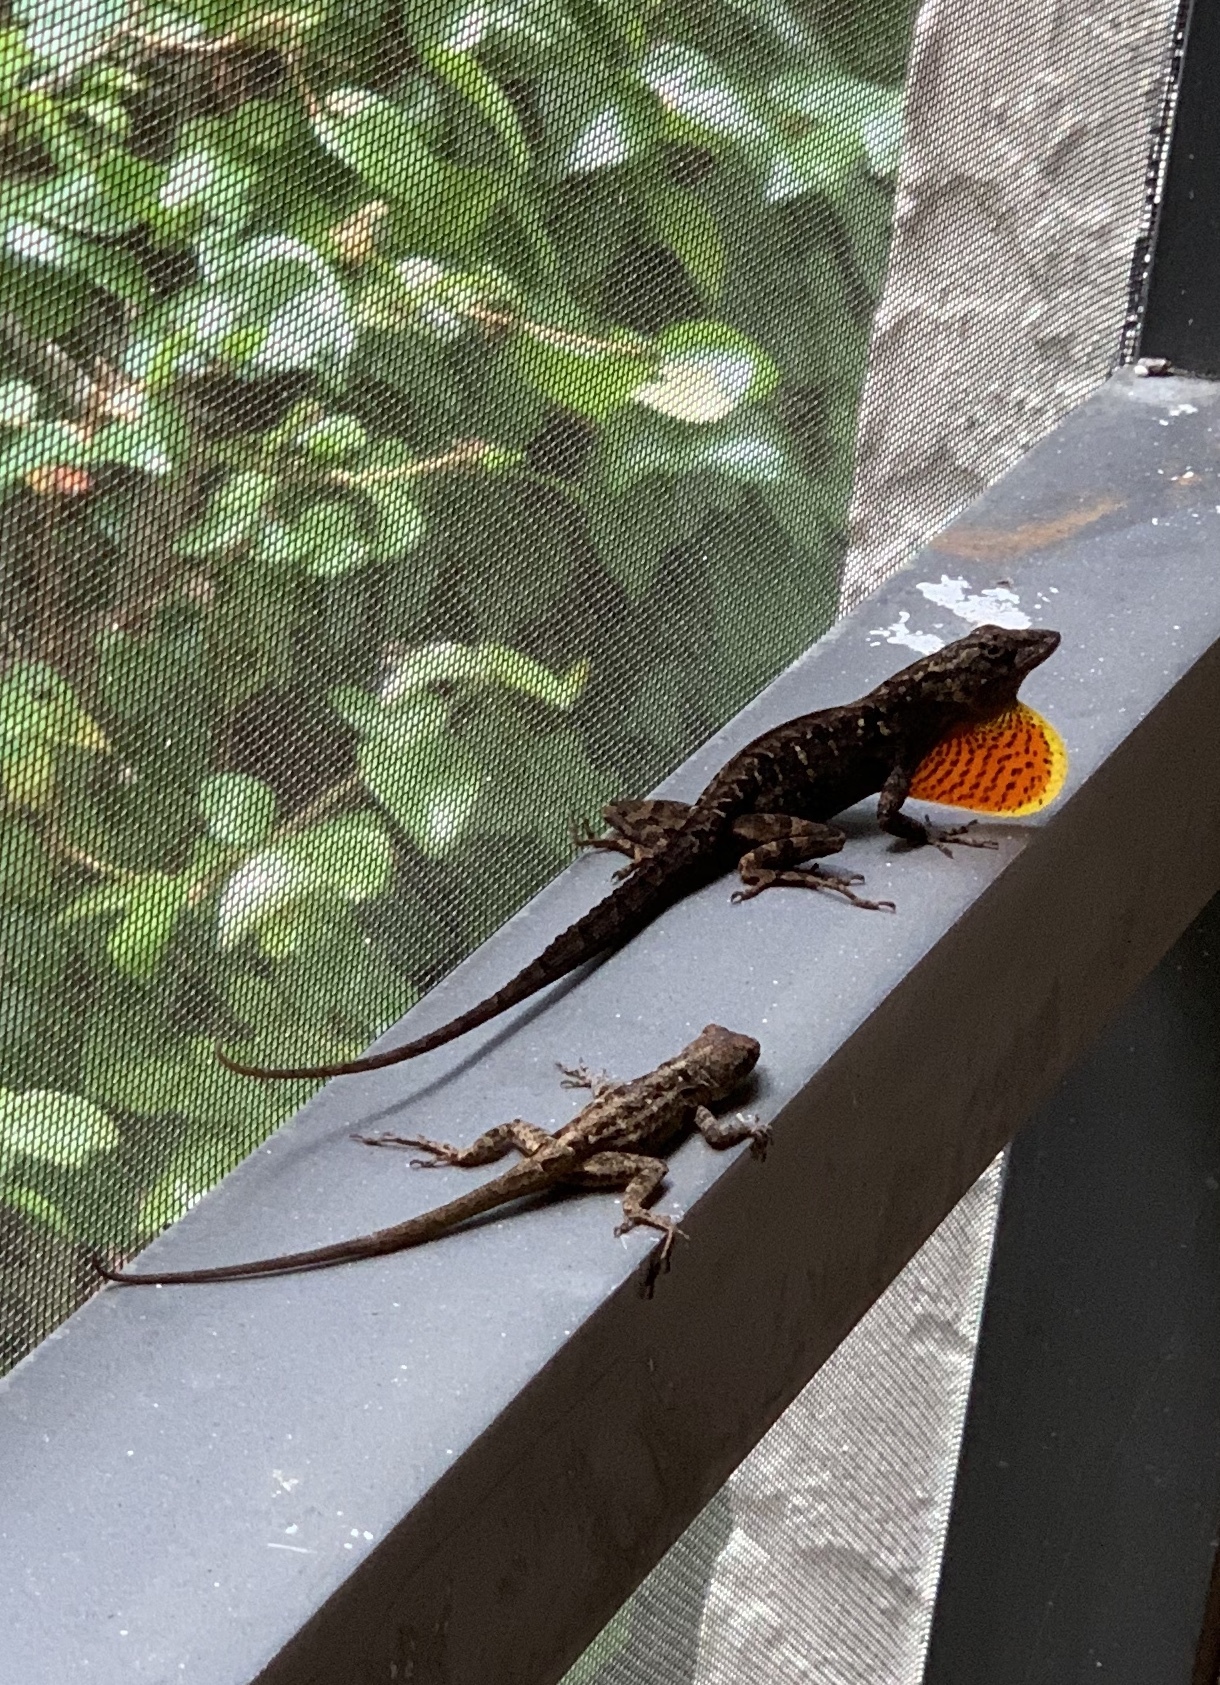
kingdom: Animalia
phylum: Chordata
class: Squamata
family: Dactyloidae
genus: Anolis
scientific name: Anolis sagrei
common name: Brown anole
